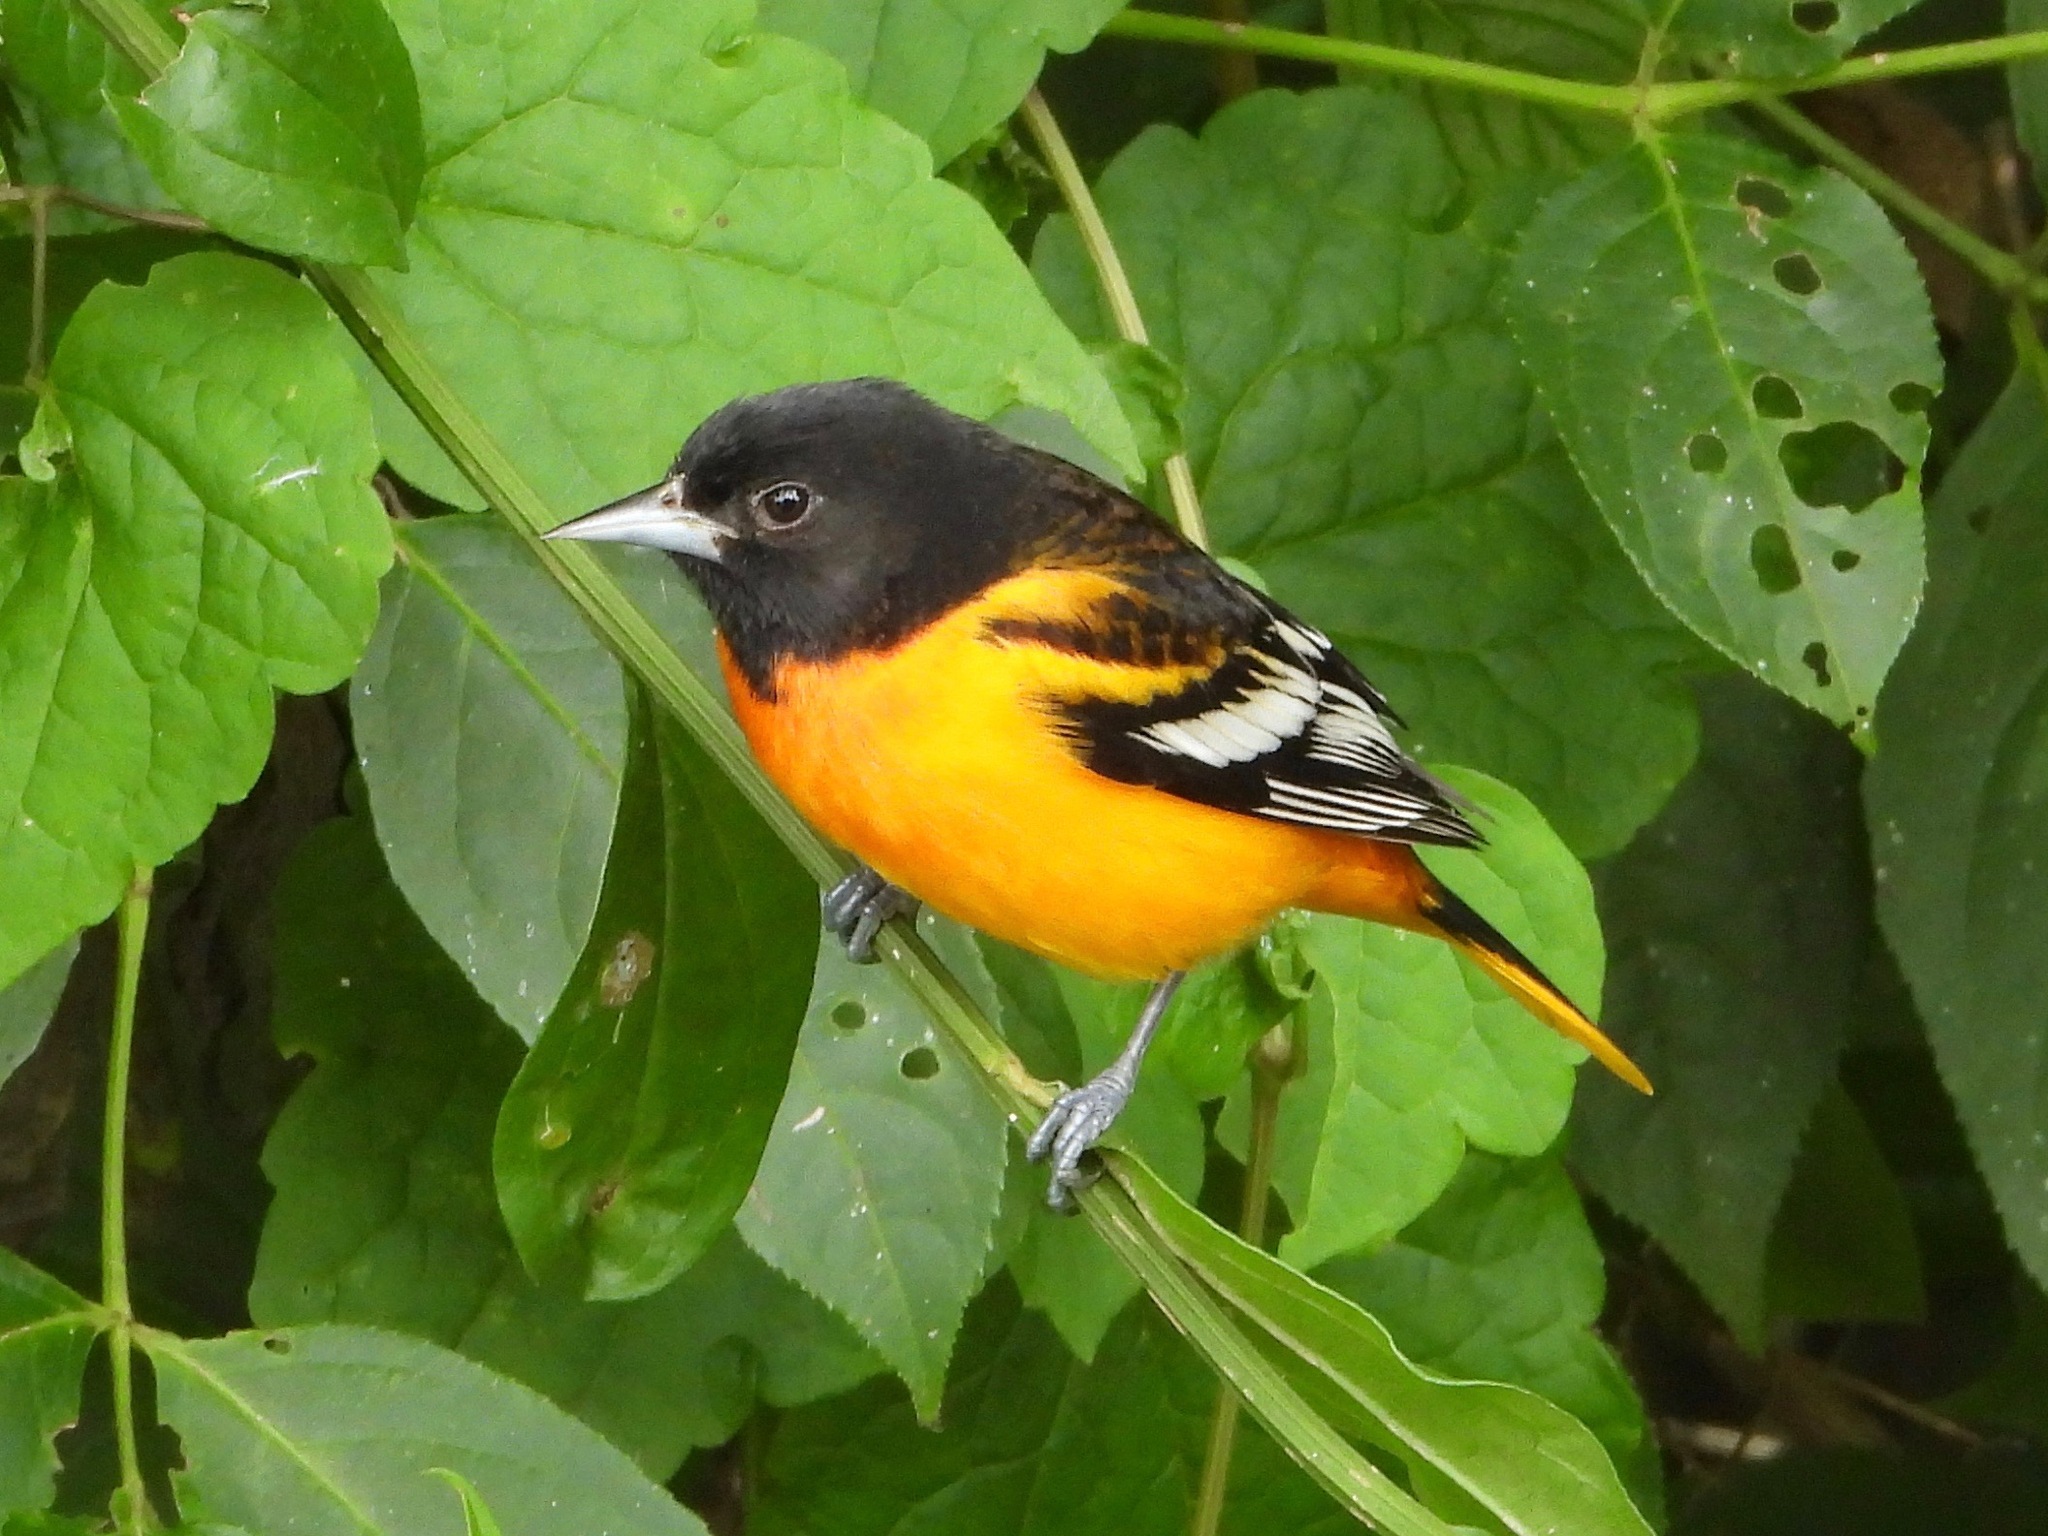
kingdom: Animalia
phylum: Chordata
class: Aves
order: Passeriformes
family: Icteridae
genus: Icterus
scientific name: Icterus galbula
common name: Baltimore oriole
